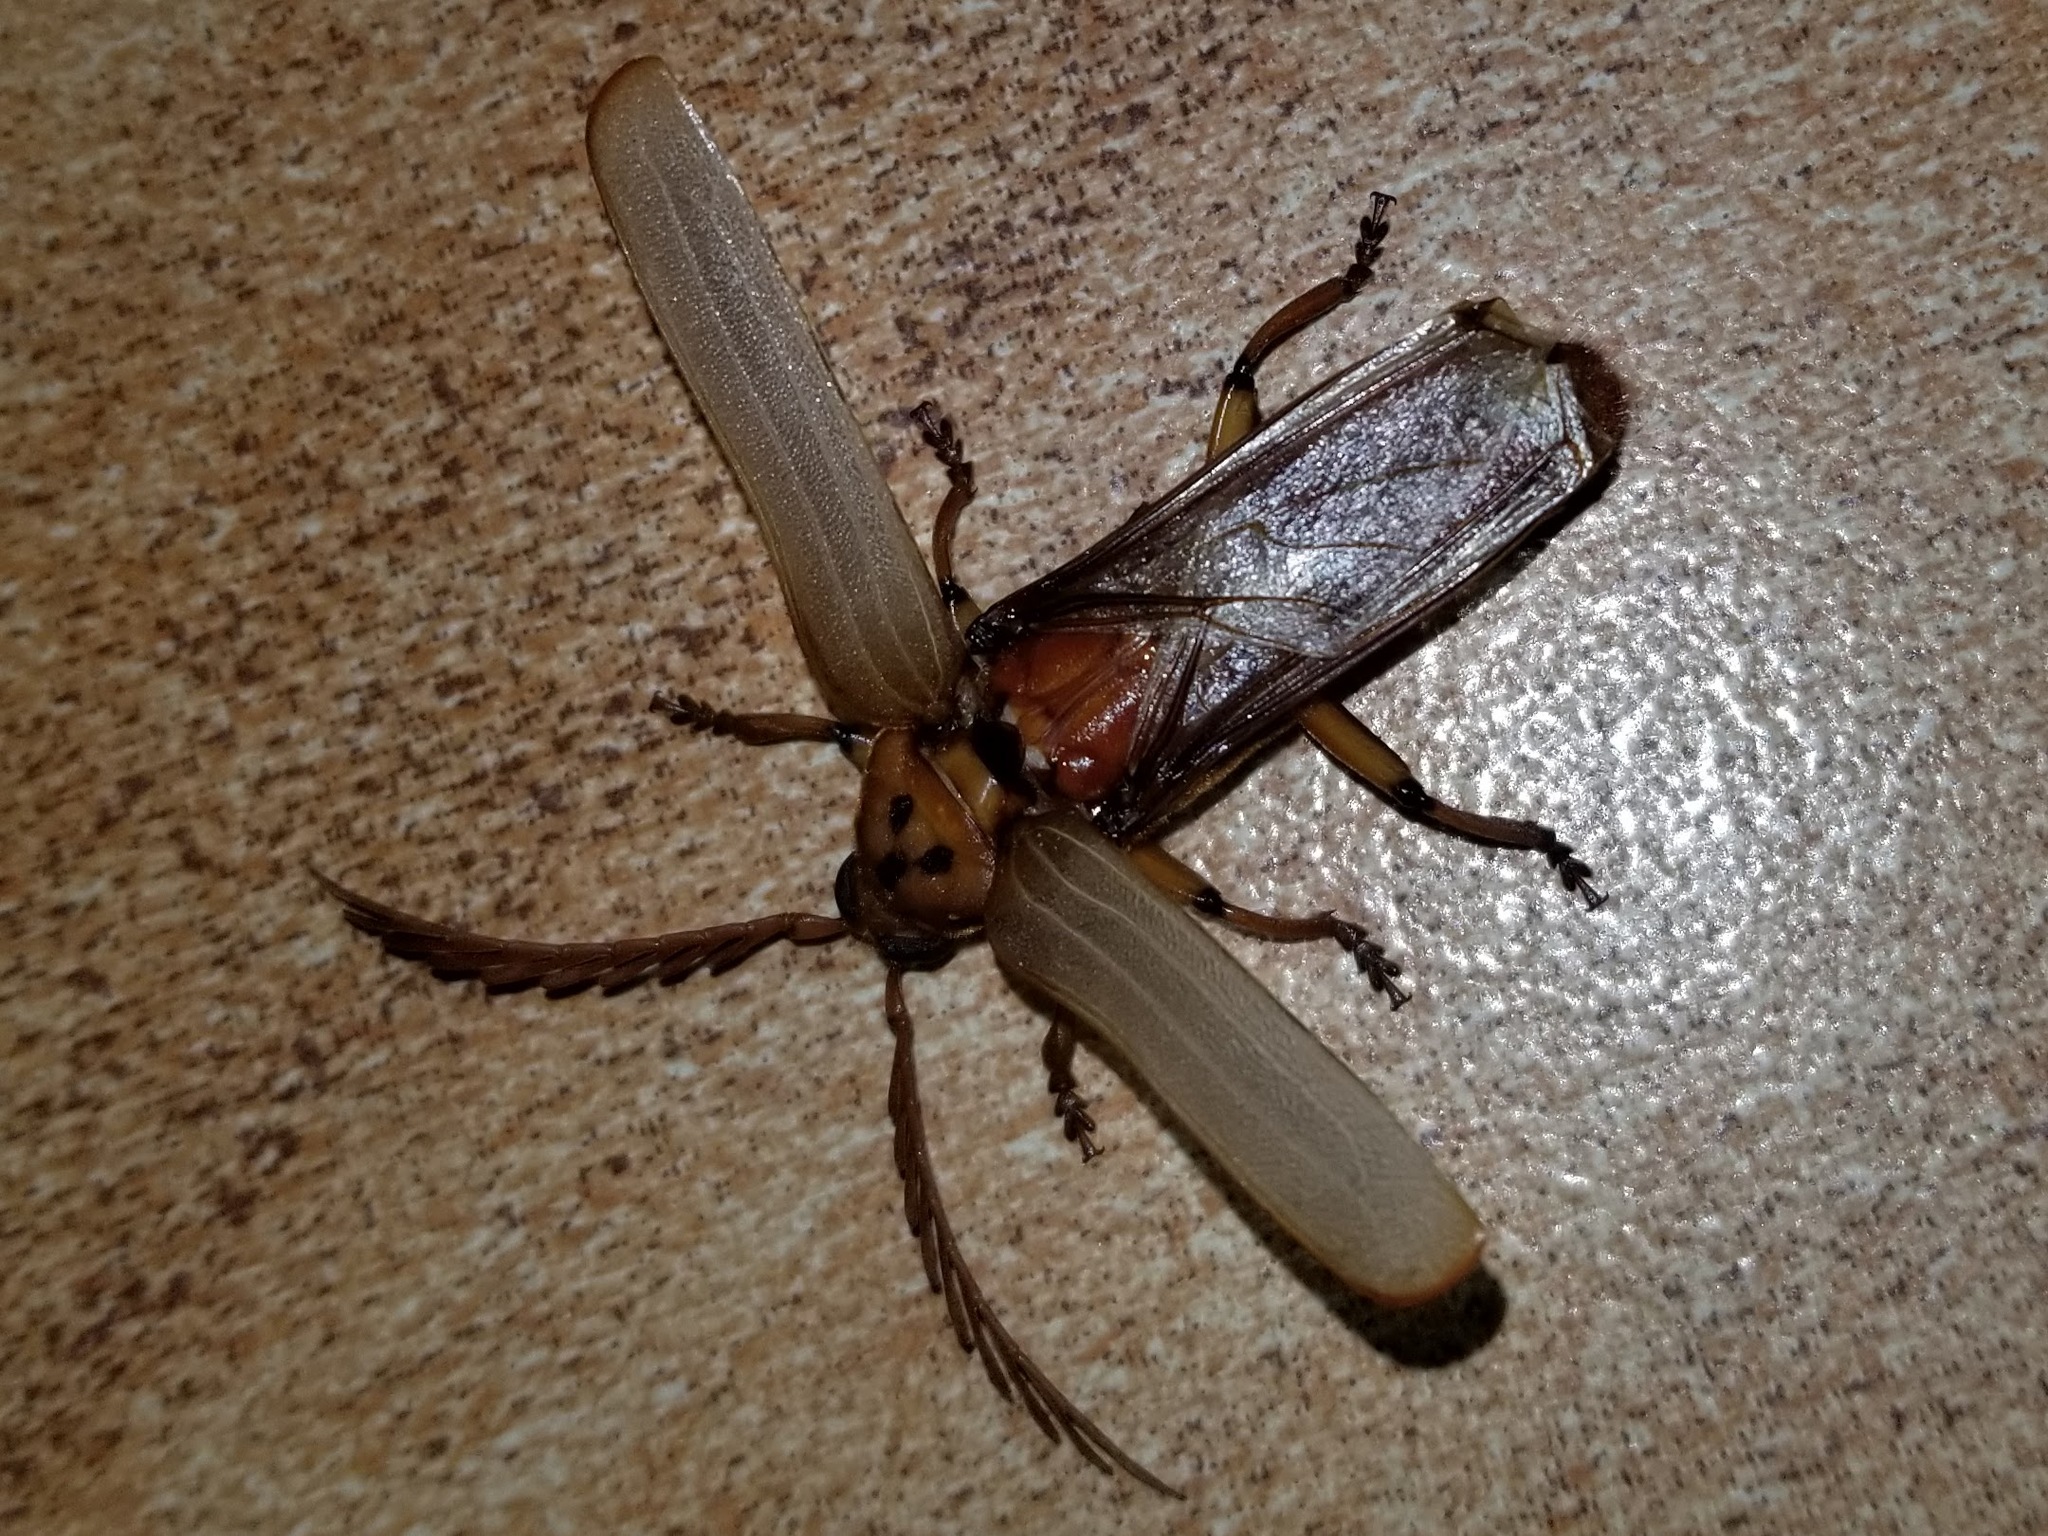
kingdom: Animalia
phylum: Arthropoda
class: Insecta
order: Coleoptera
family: Cerambycidae
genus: Neoclosterus
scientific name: Neoclosterus curvipes
